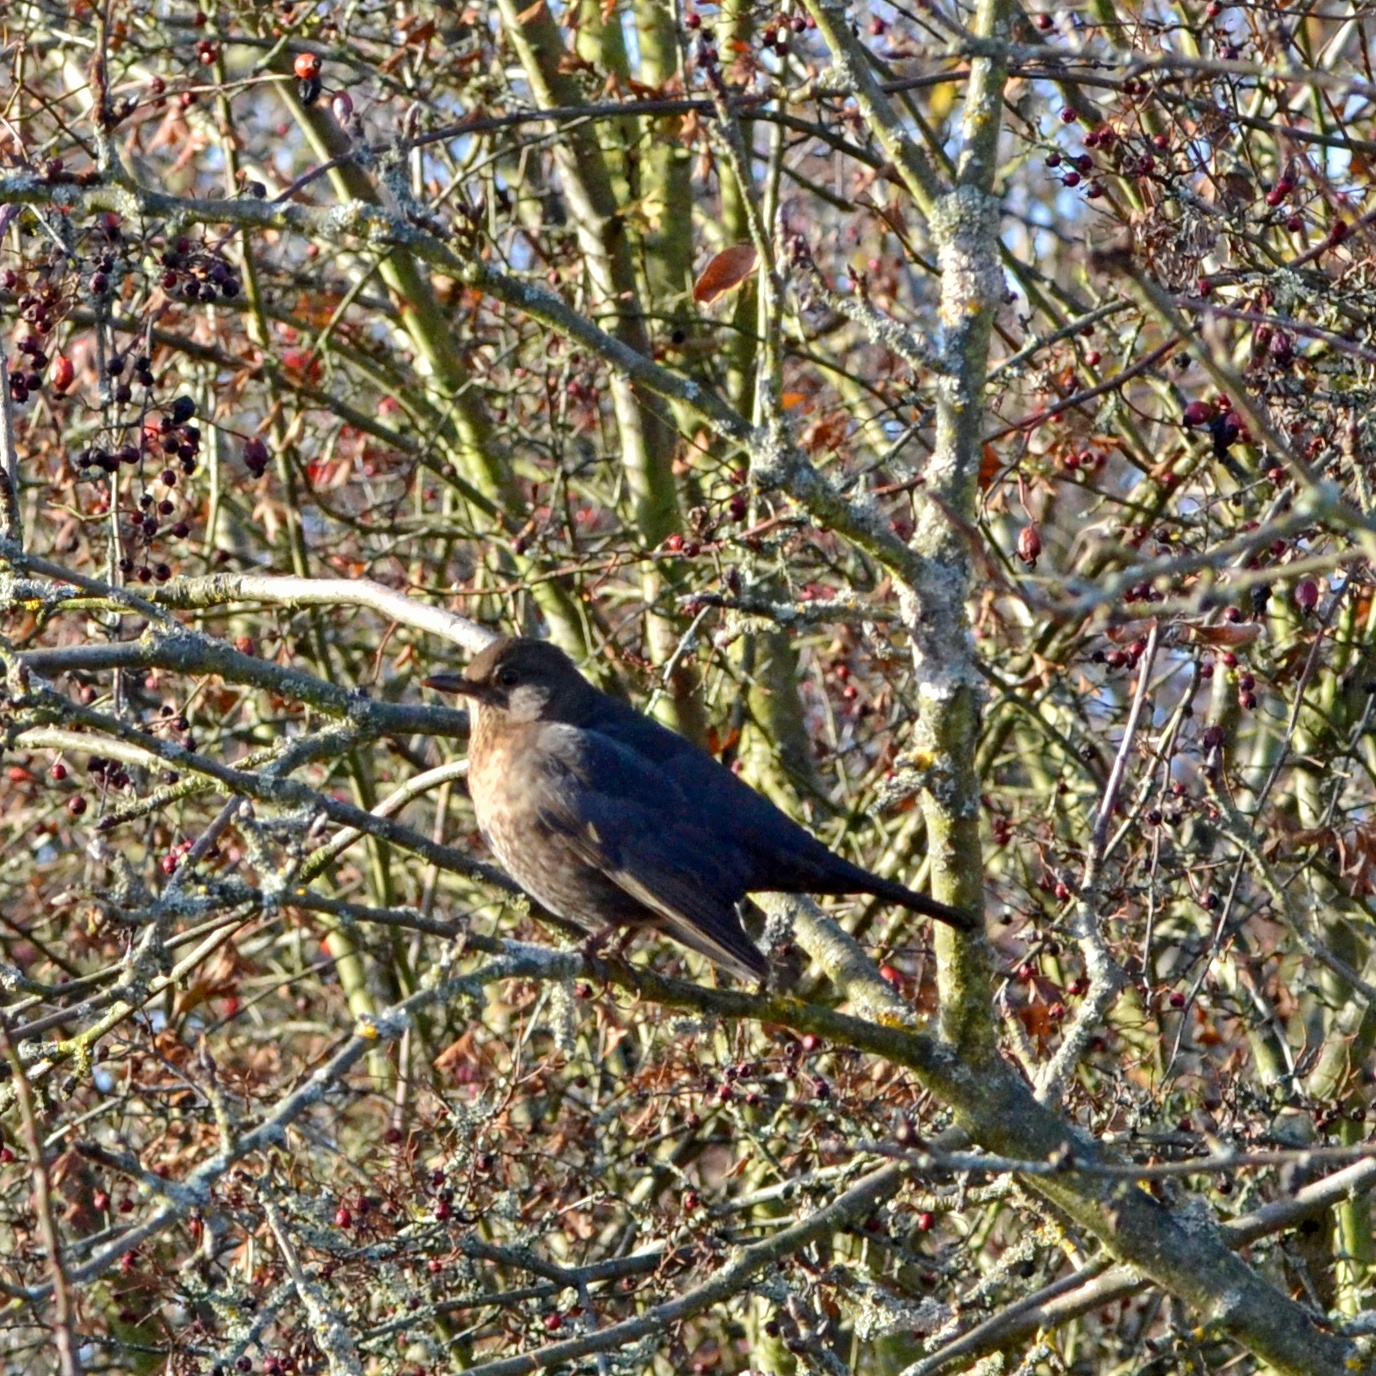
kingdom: Animalia
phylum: Chordata
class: Aves
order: Passeriformes
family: Turdidae
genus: Turdus
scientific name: Turdus merula
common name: Common blackbird
